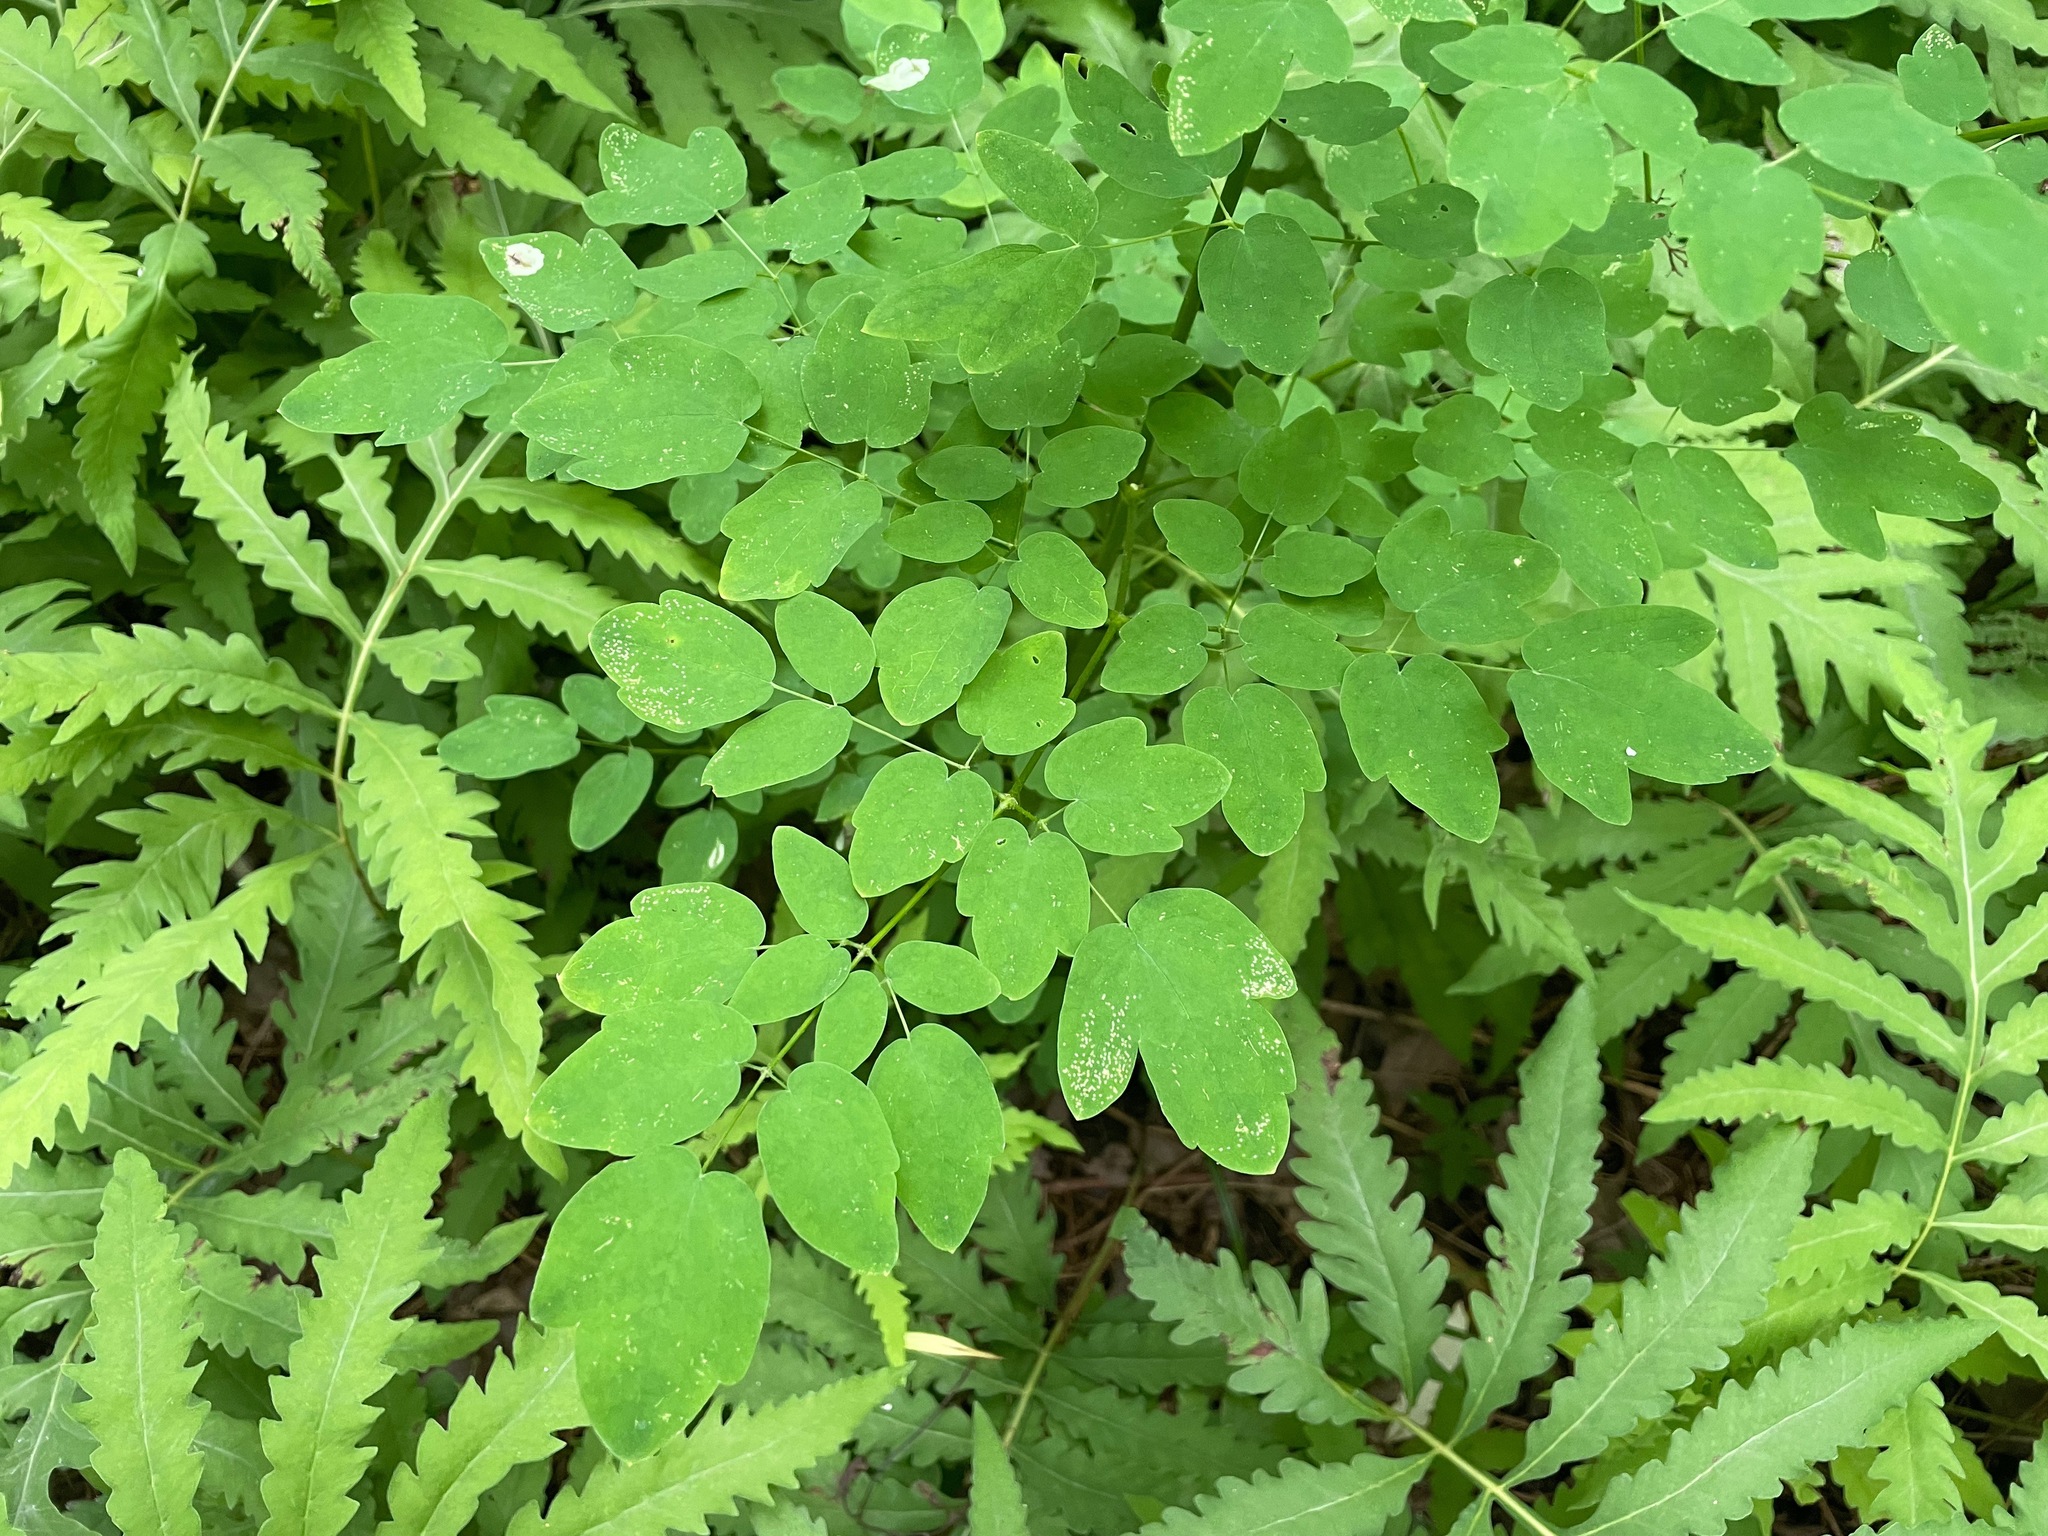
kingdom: Plantae
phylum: Tracheophyta
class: Magnoliopsida
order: Ranunculales
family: Ranunculaceae
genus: Thalictrum
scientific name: Thalictrum pubescens
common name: King-of-the-meadow
